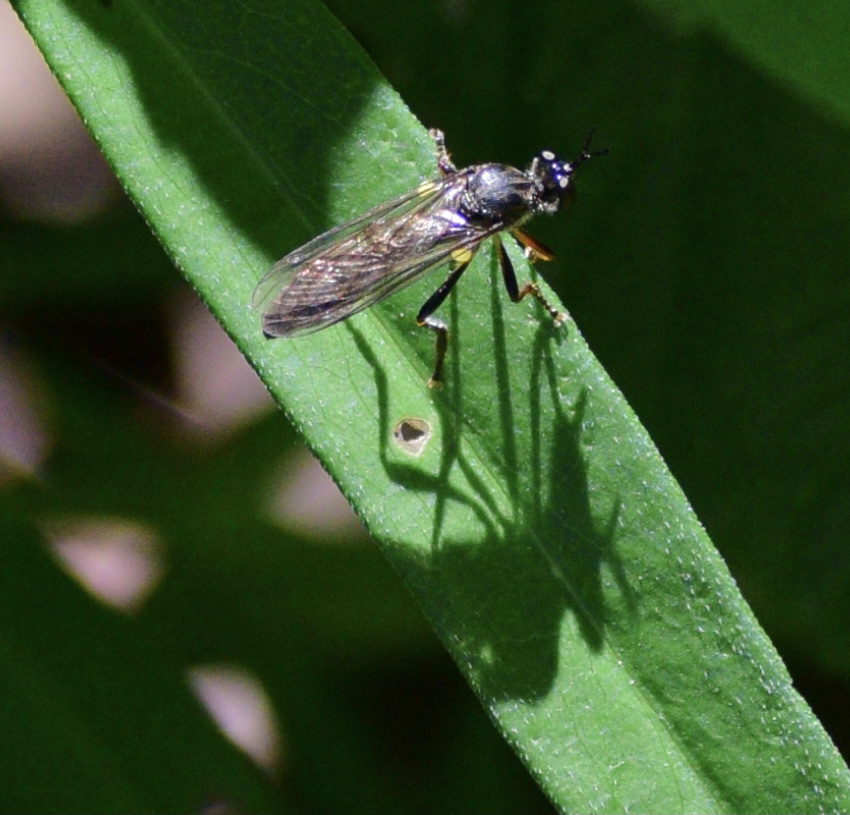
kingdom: Animalia
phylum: Arthropoda
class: Insecta
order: Diptera
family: Asilidae
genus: Dioctria
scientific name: Dioctria hyalipennis
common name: Stripe-legged robberfly
